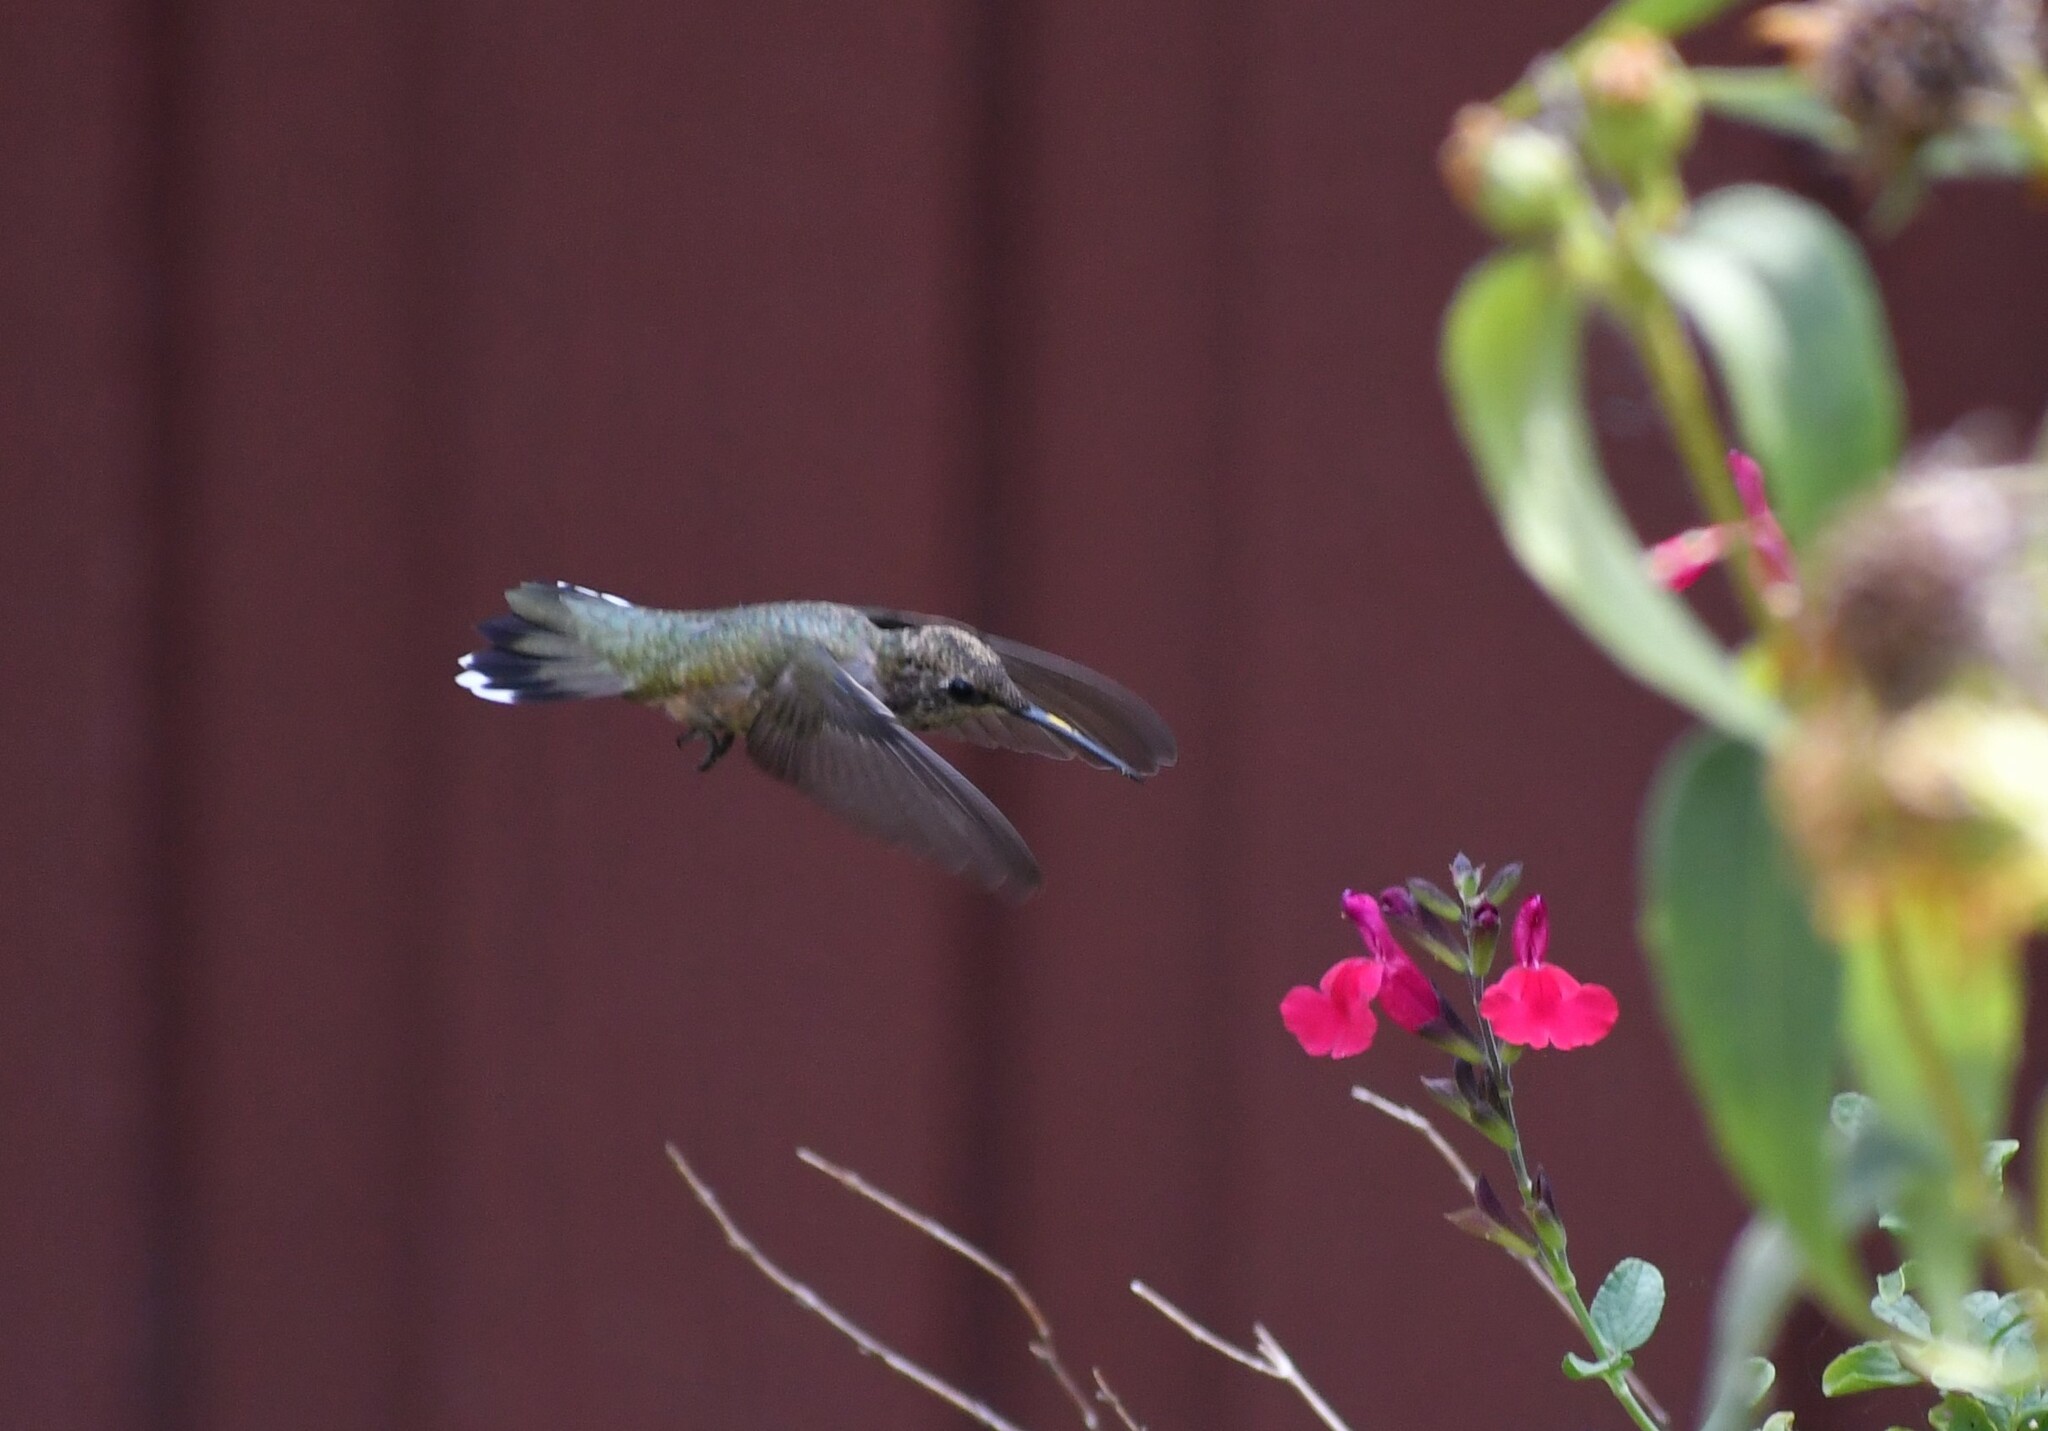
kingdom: Animalia
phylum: Chordata
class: Aves
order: Apodiformes
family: Trochilidae
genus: Archilochus
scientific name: Archilochus alexandri
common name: Black-chinned hummingbird
